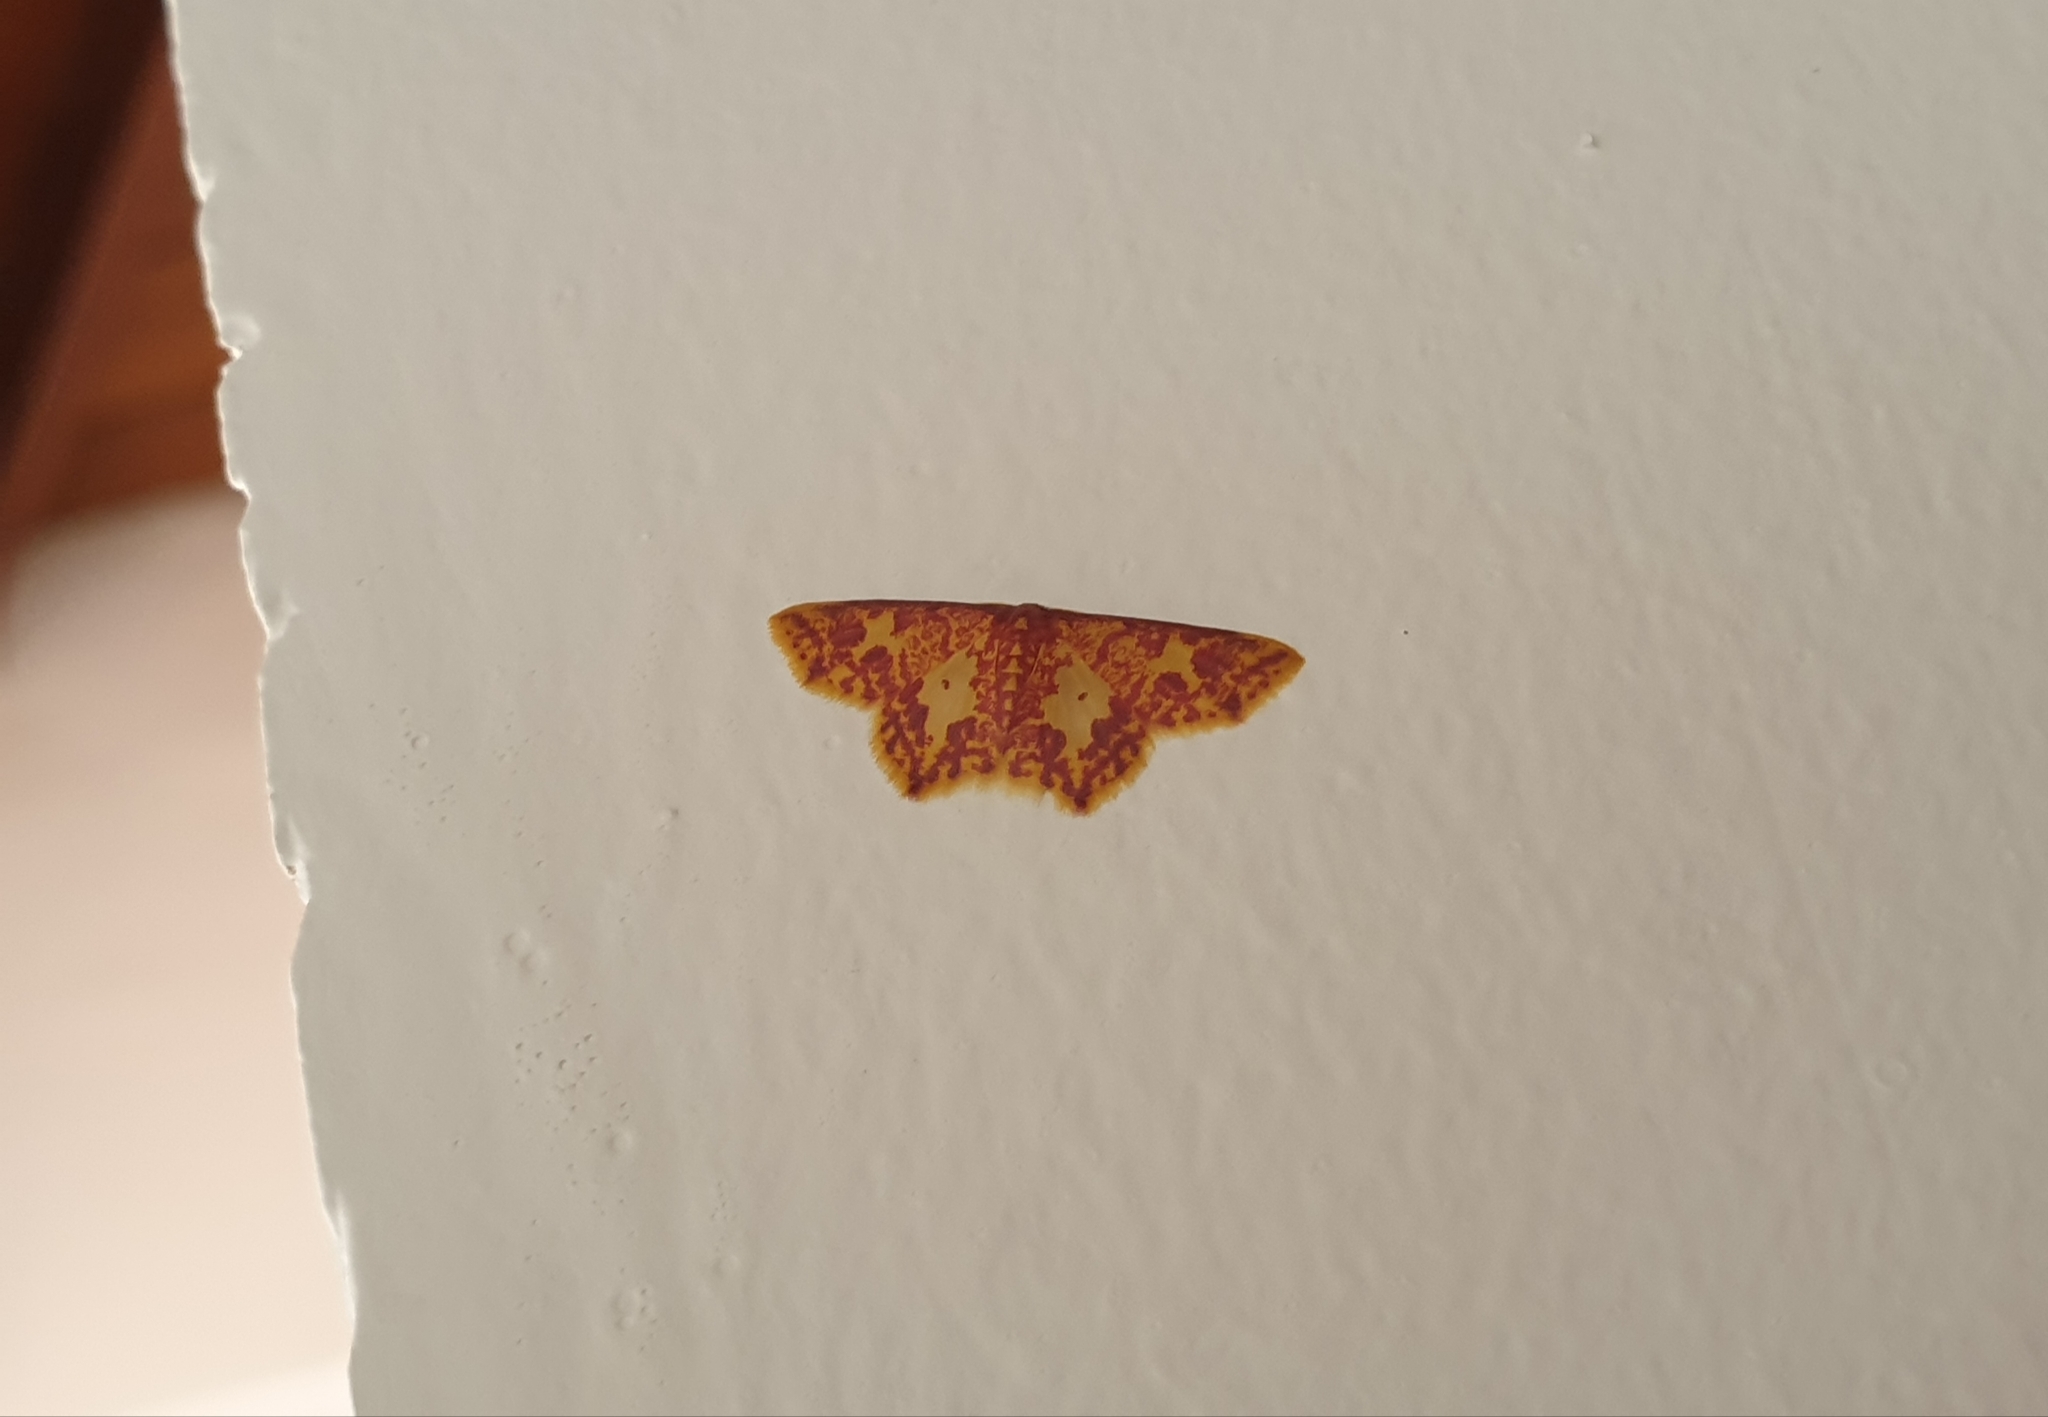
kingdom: Animalia
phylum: Arthropoda
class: Insecta
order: Lepidoptera
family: Geometridae
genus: Chrysocraspeda
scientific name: Chrysocraspeda faganaria
